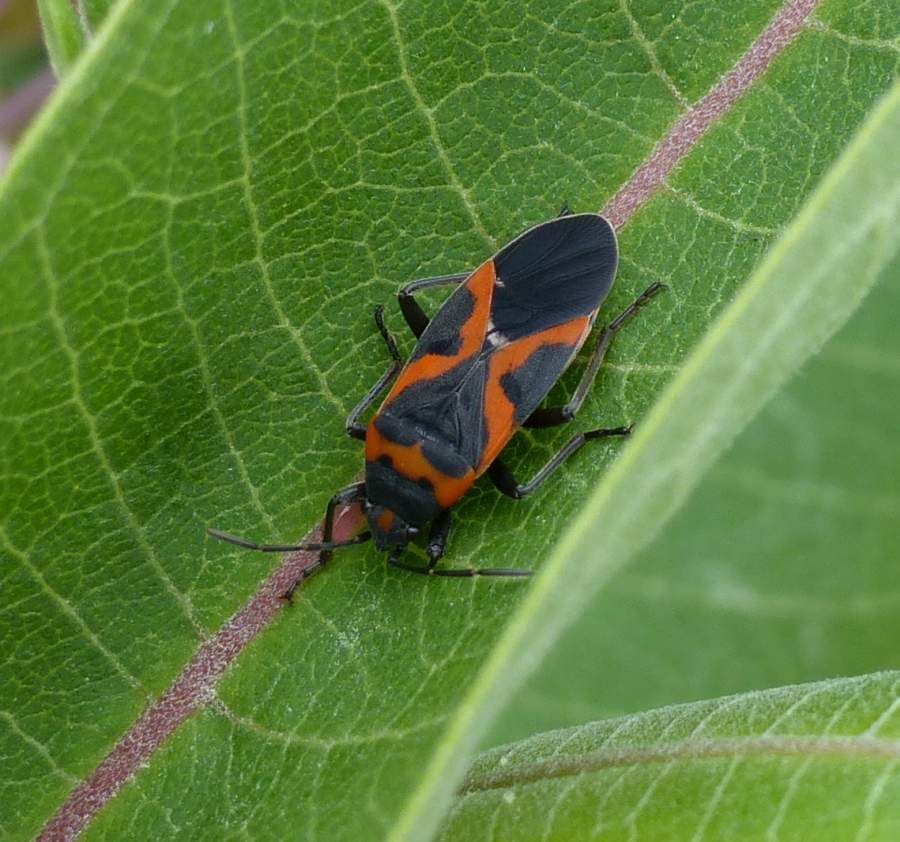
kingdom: Animalia
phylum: Arthropoda
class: Insecta
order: Hemiptera
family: Lygaeidae
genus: Lygaeus
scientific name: Lygaeus kalmii
